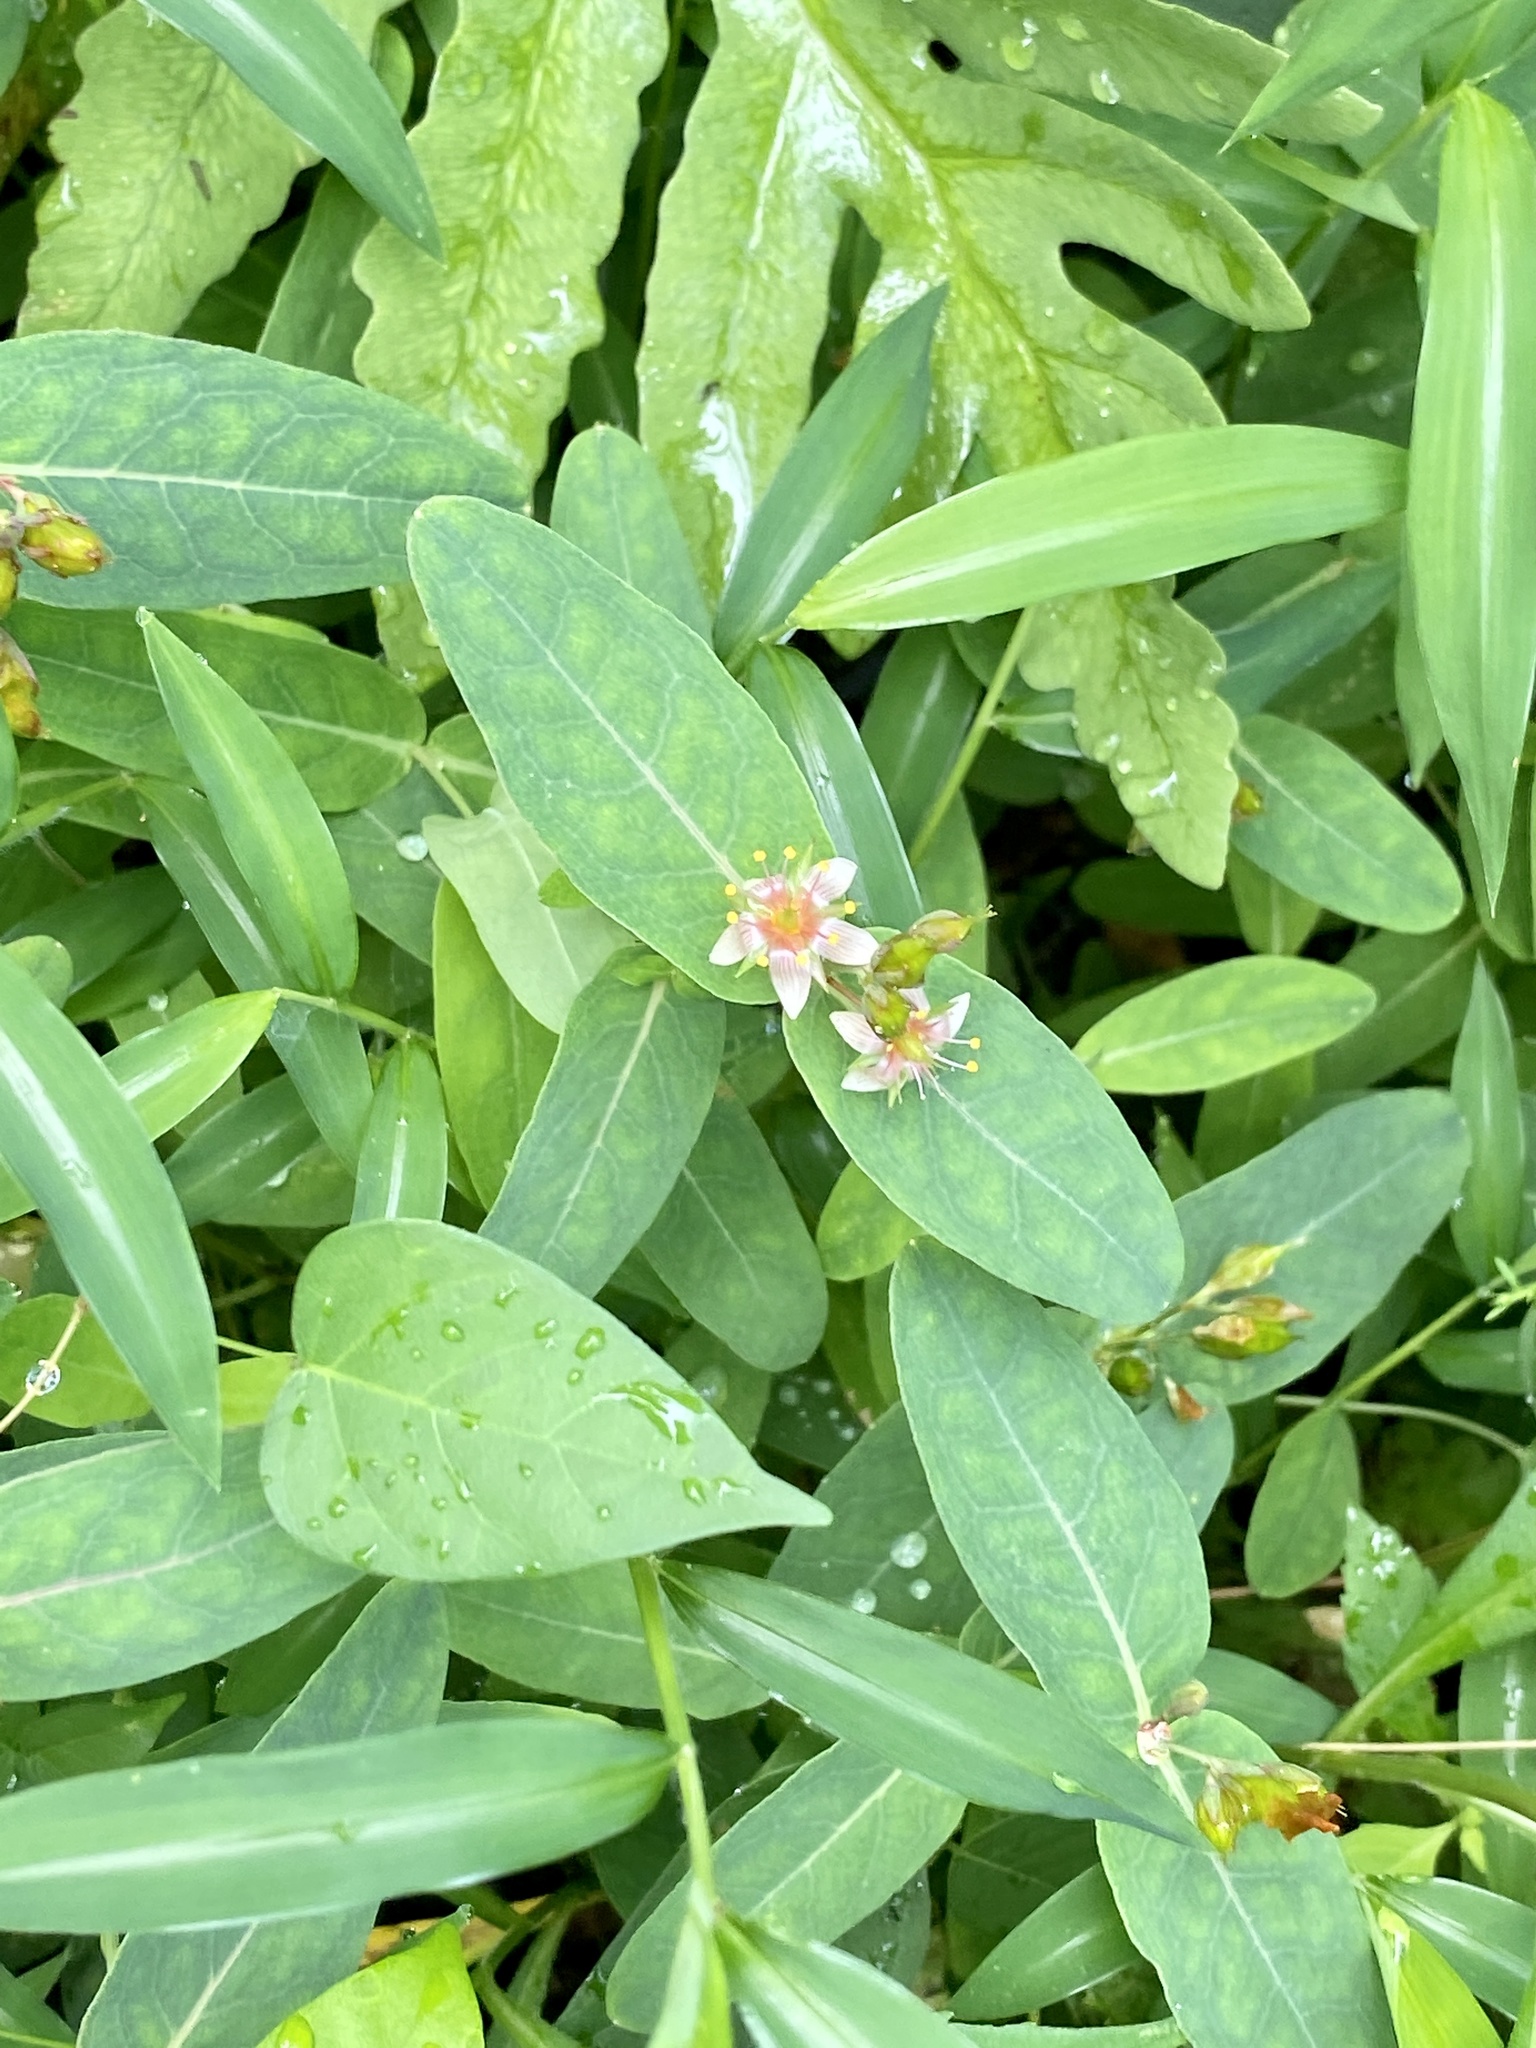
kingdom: Plantae
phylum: Tracheophyta
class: Magnoliopsida
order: Malpighiales
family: Hypericaceae
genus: Triadenum
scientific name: Triadenum virginicum
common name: Marsh st. john's-wort
